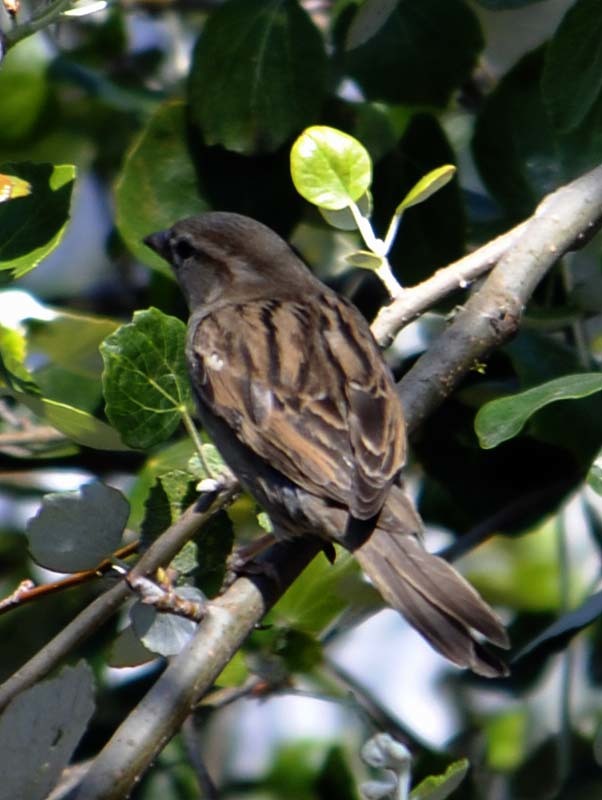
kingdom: Animalia
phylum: Chordata
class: Aves
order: Passeriformes
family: Passeridae
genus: Passer
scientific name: Passer domesticus
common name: House sparrow
